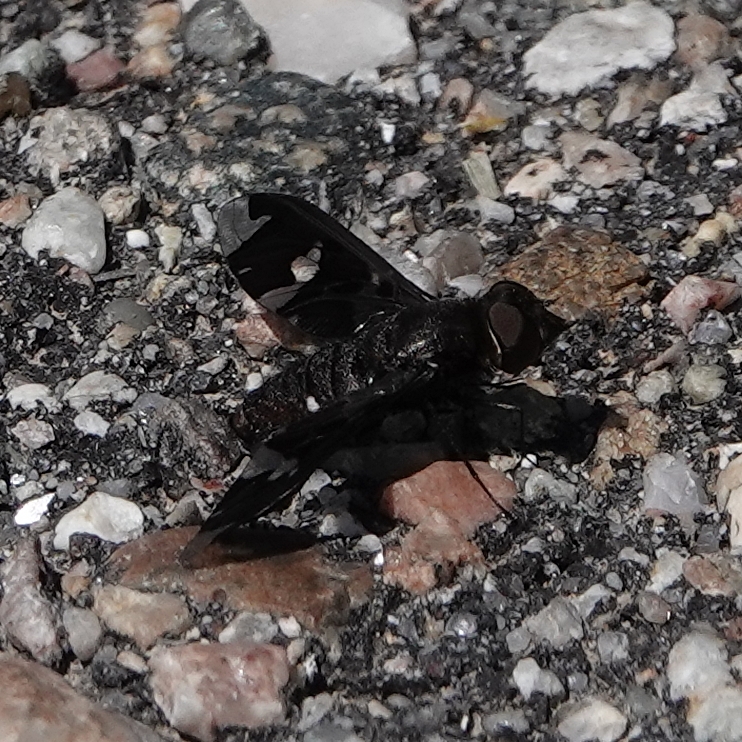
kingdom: Animalia
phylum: Arthropoda
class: Insecta
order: Diptera
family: Bombyliidae
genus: Exoprosopa
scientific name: Exoprosopa decora
